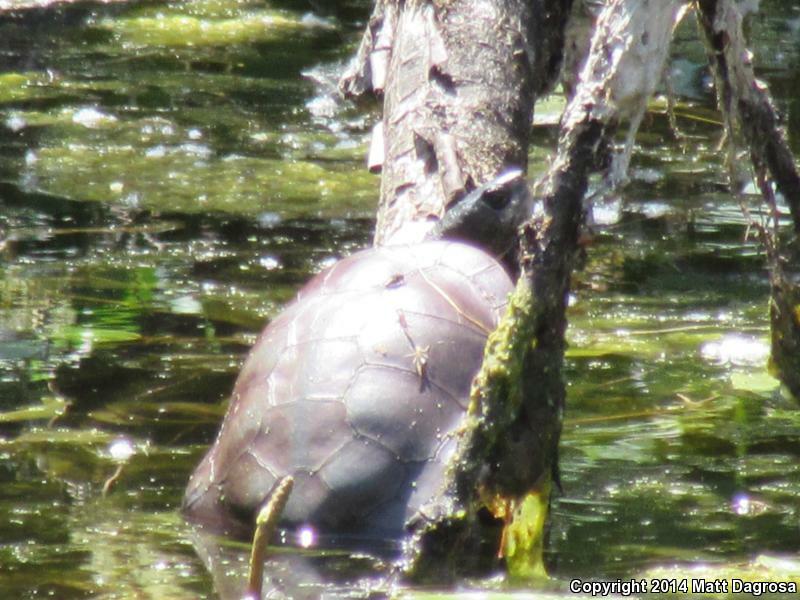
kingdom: Animalia
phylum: Chordata
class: Testudines
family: Emydidae
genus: Actinemys
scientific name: Actinemys marmorata
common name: Western pond turtle
